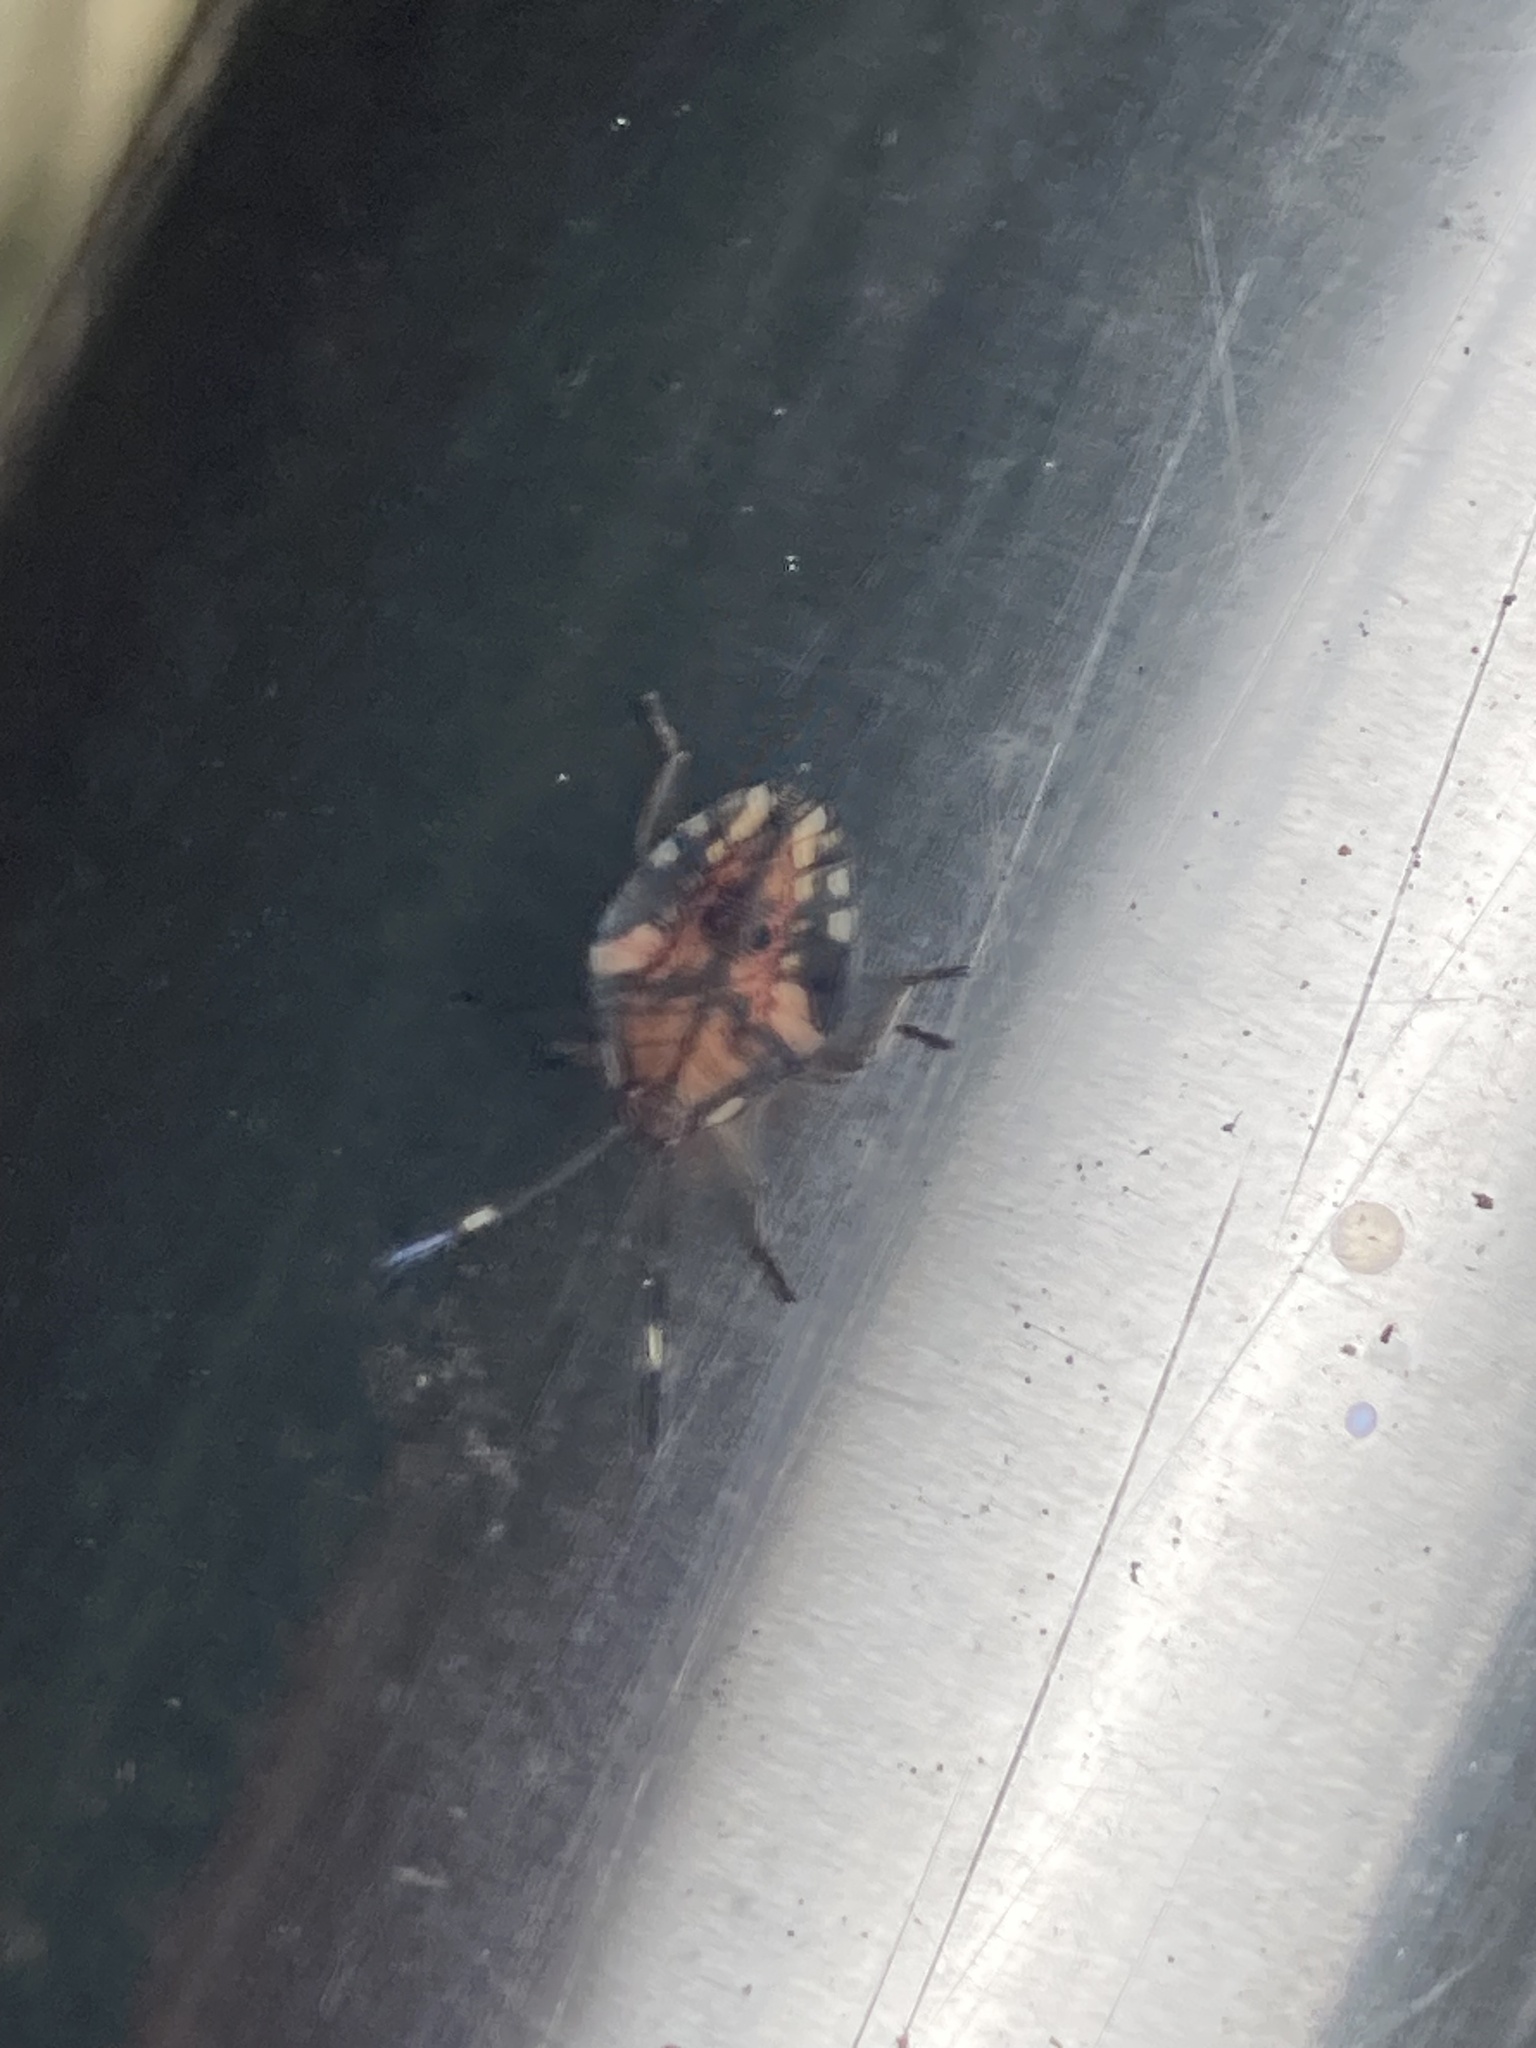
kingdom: Animalia
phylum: Arthropoda
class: Insecta
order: Hemiptera
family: Tessaratomidae
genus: Lyramorpha
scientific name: Lyramorpha rosea
